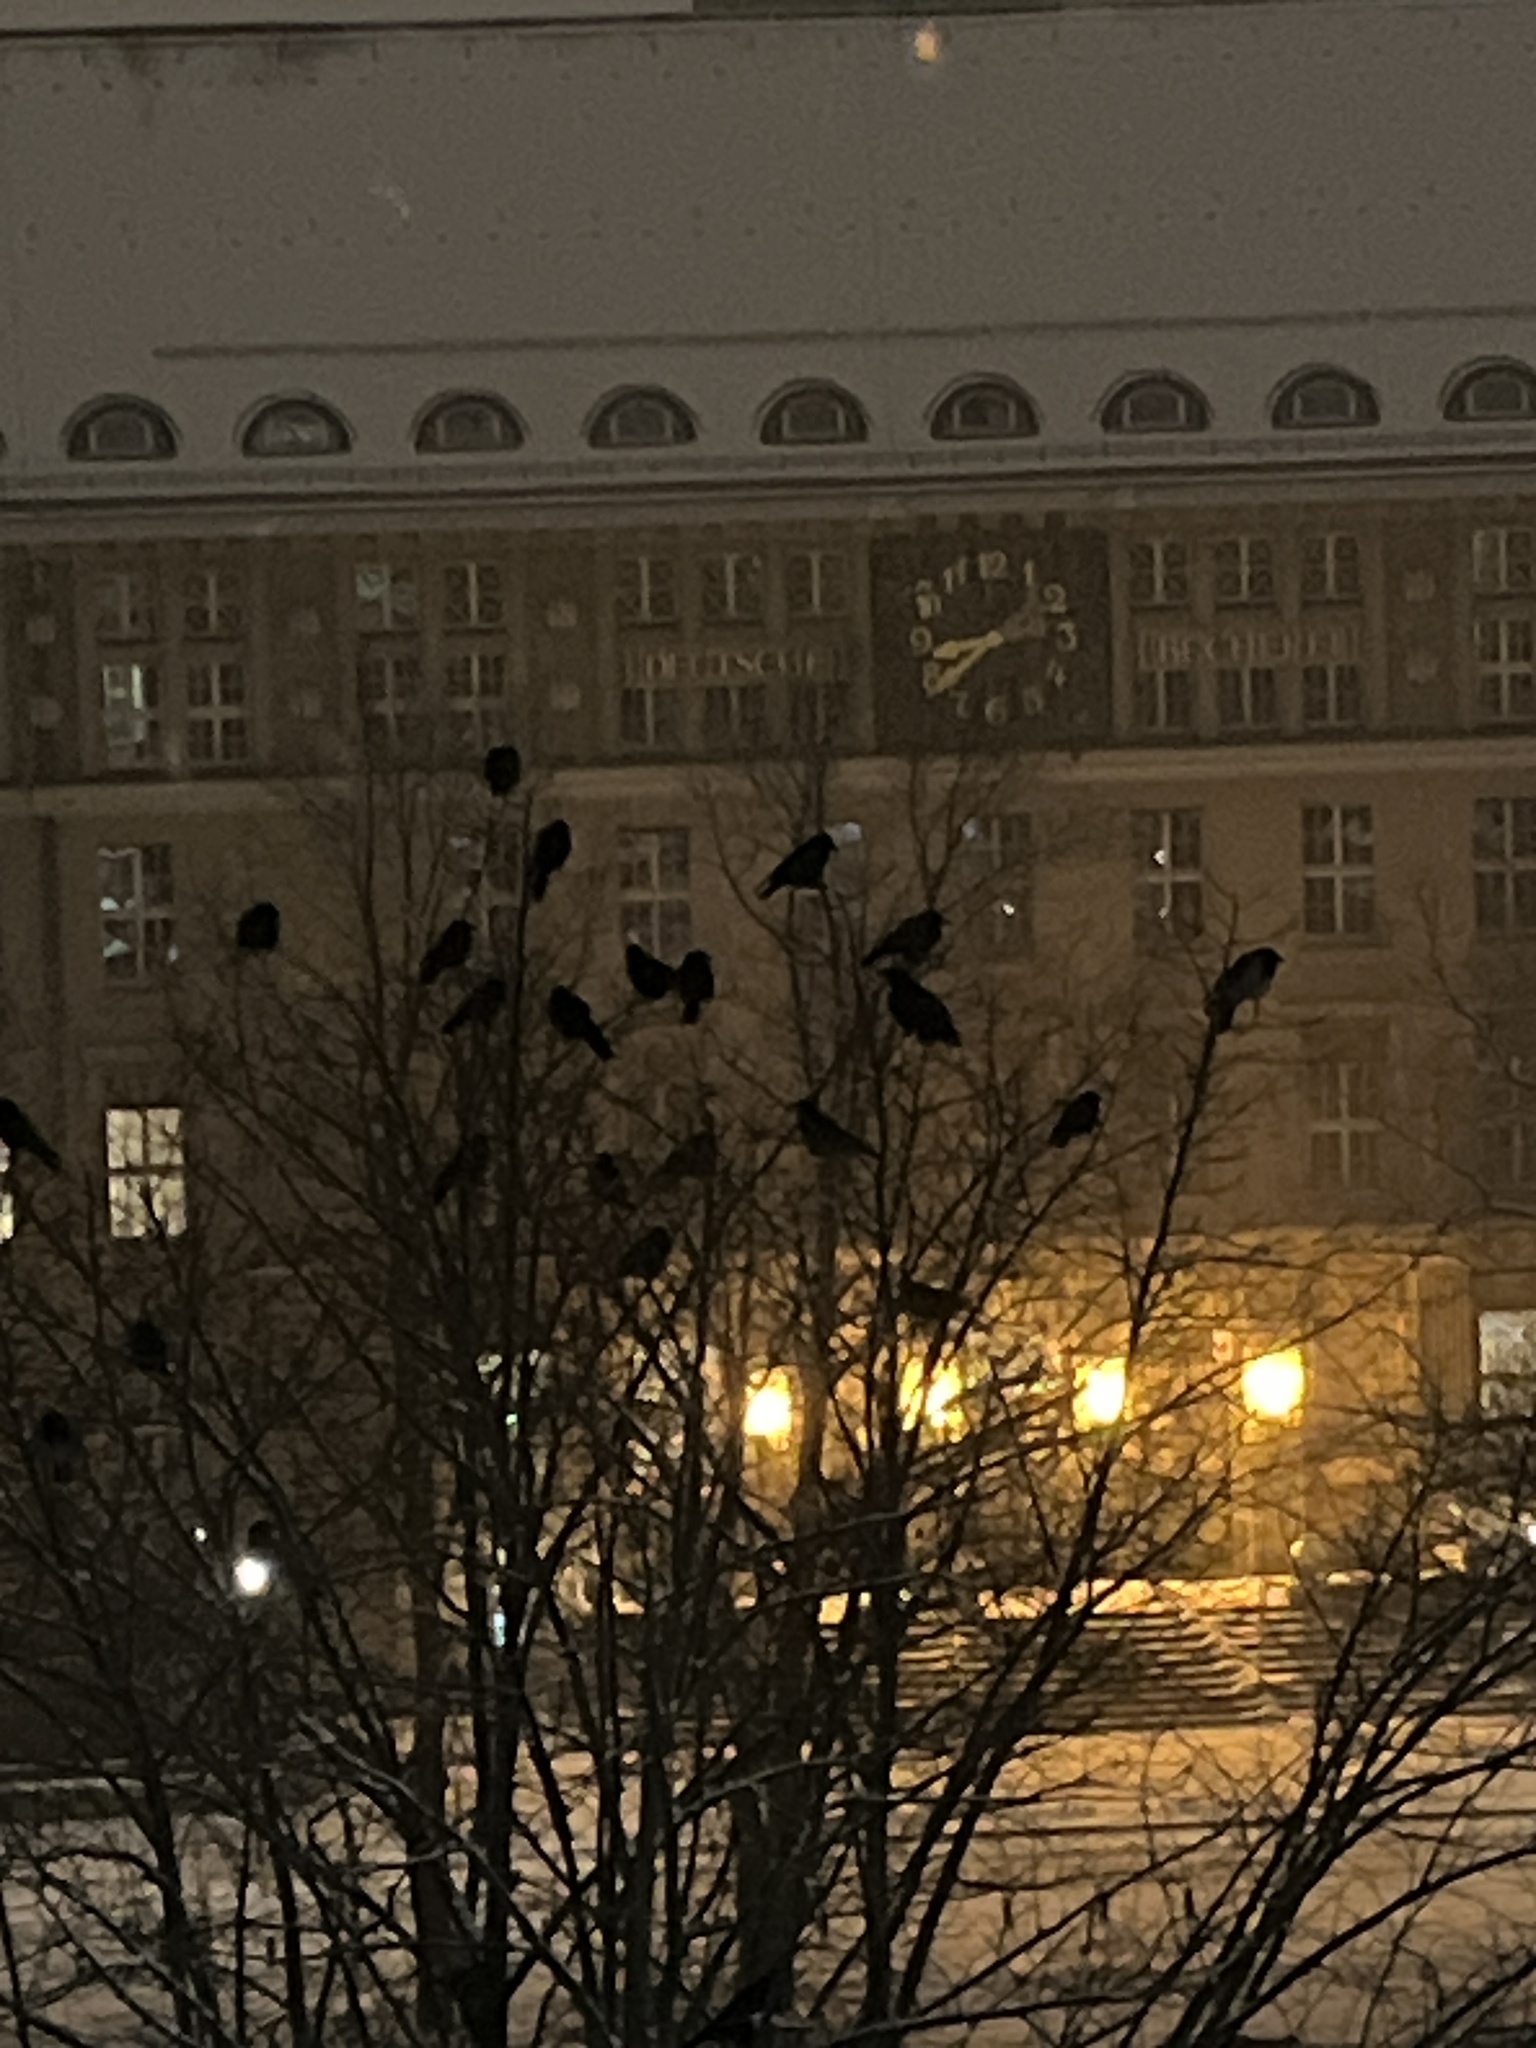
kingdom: Animalia
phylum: Chordata
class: Aves
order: Passeriformes
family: Corvidae
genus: Coloeus
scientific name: Coloeus monedula
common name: Western jackdaw
